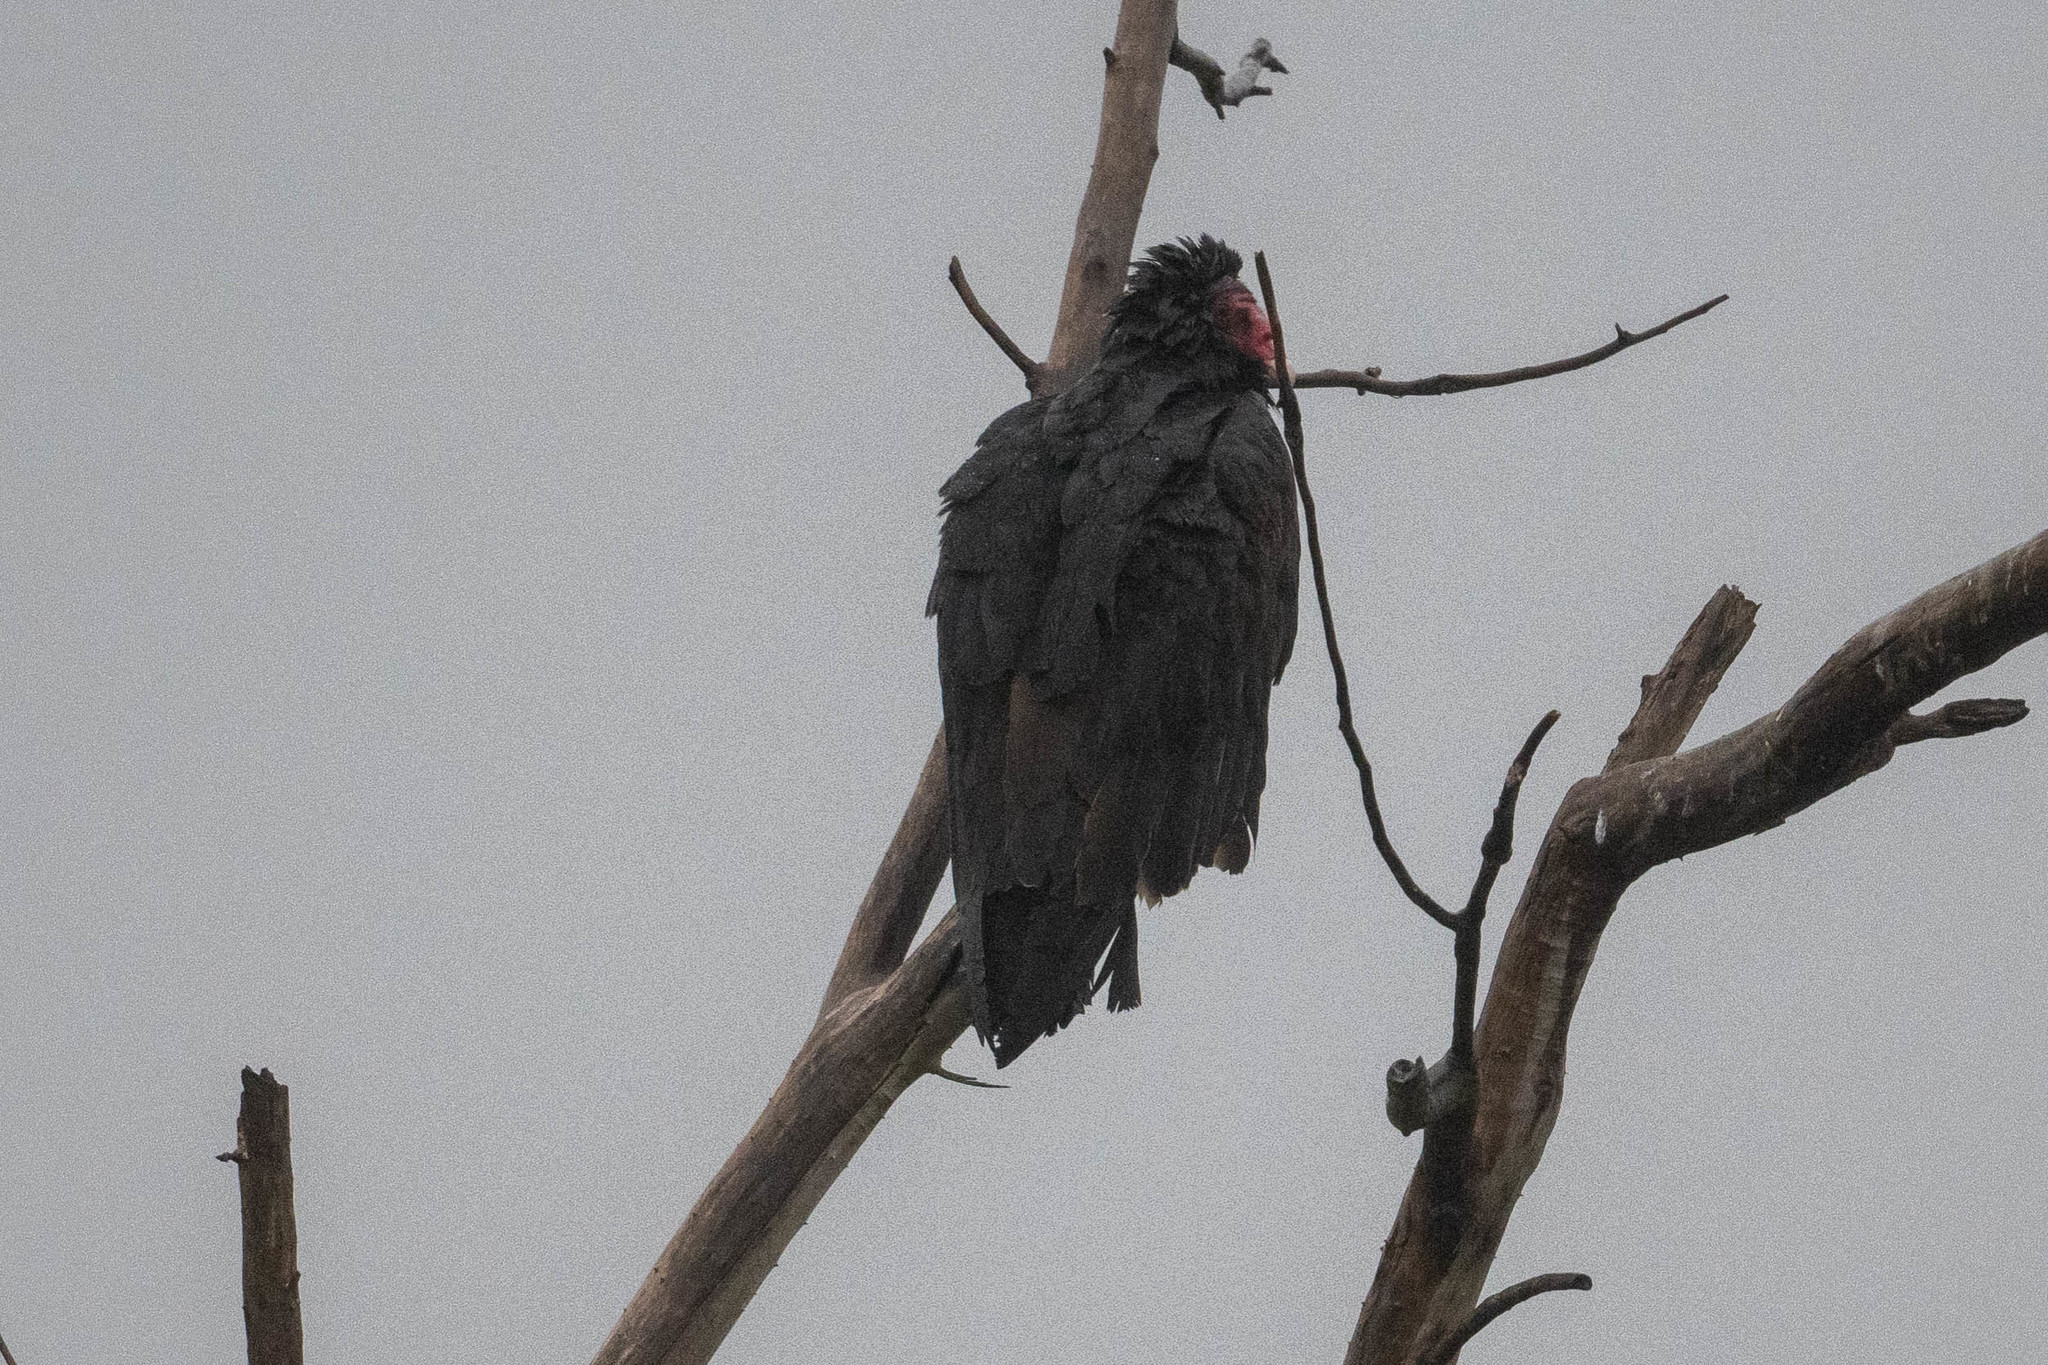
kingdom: Animalia
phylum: Chordata
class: Aves
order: Accipitriformes
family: Cathartidae
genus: Cathartes
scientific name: Cathartes aura
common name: Turkey vulture
